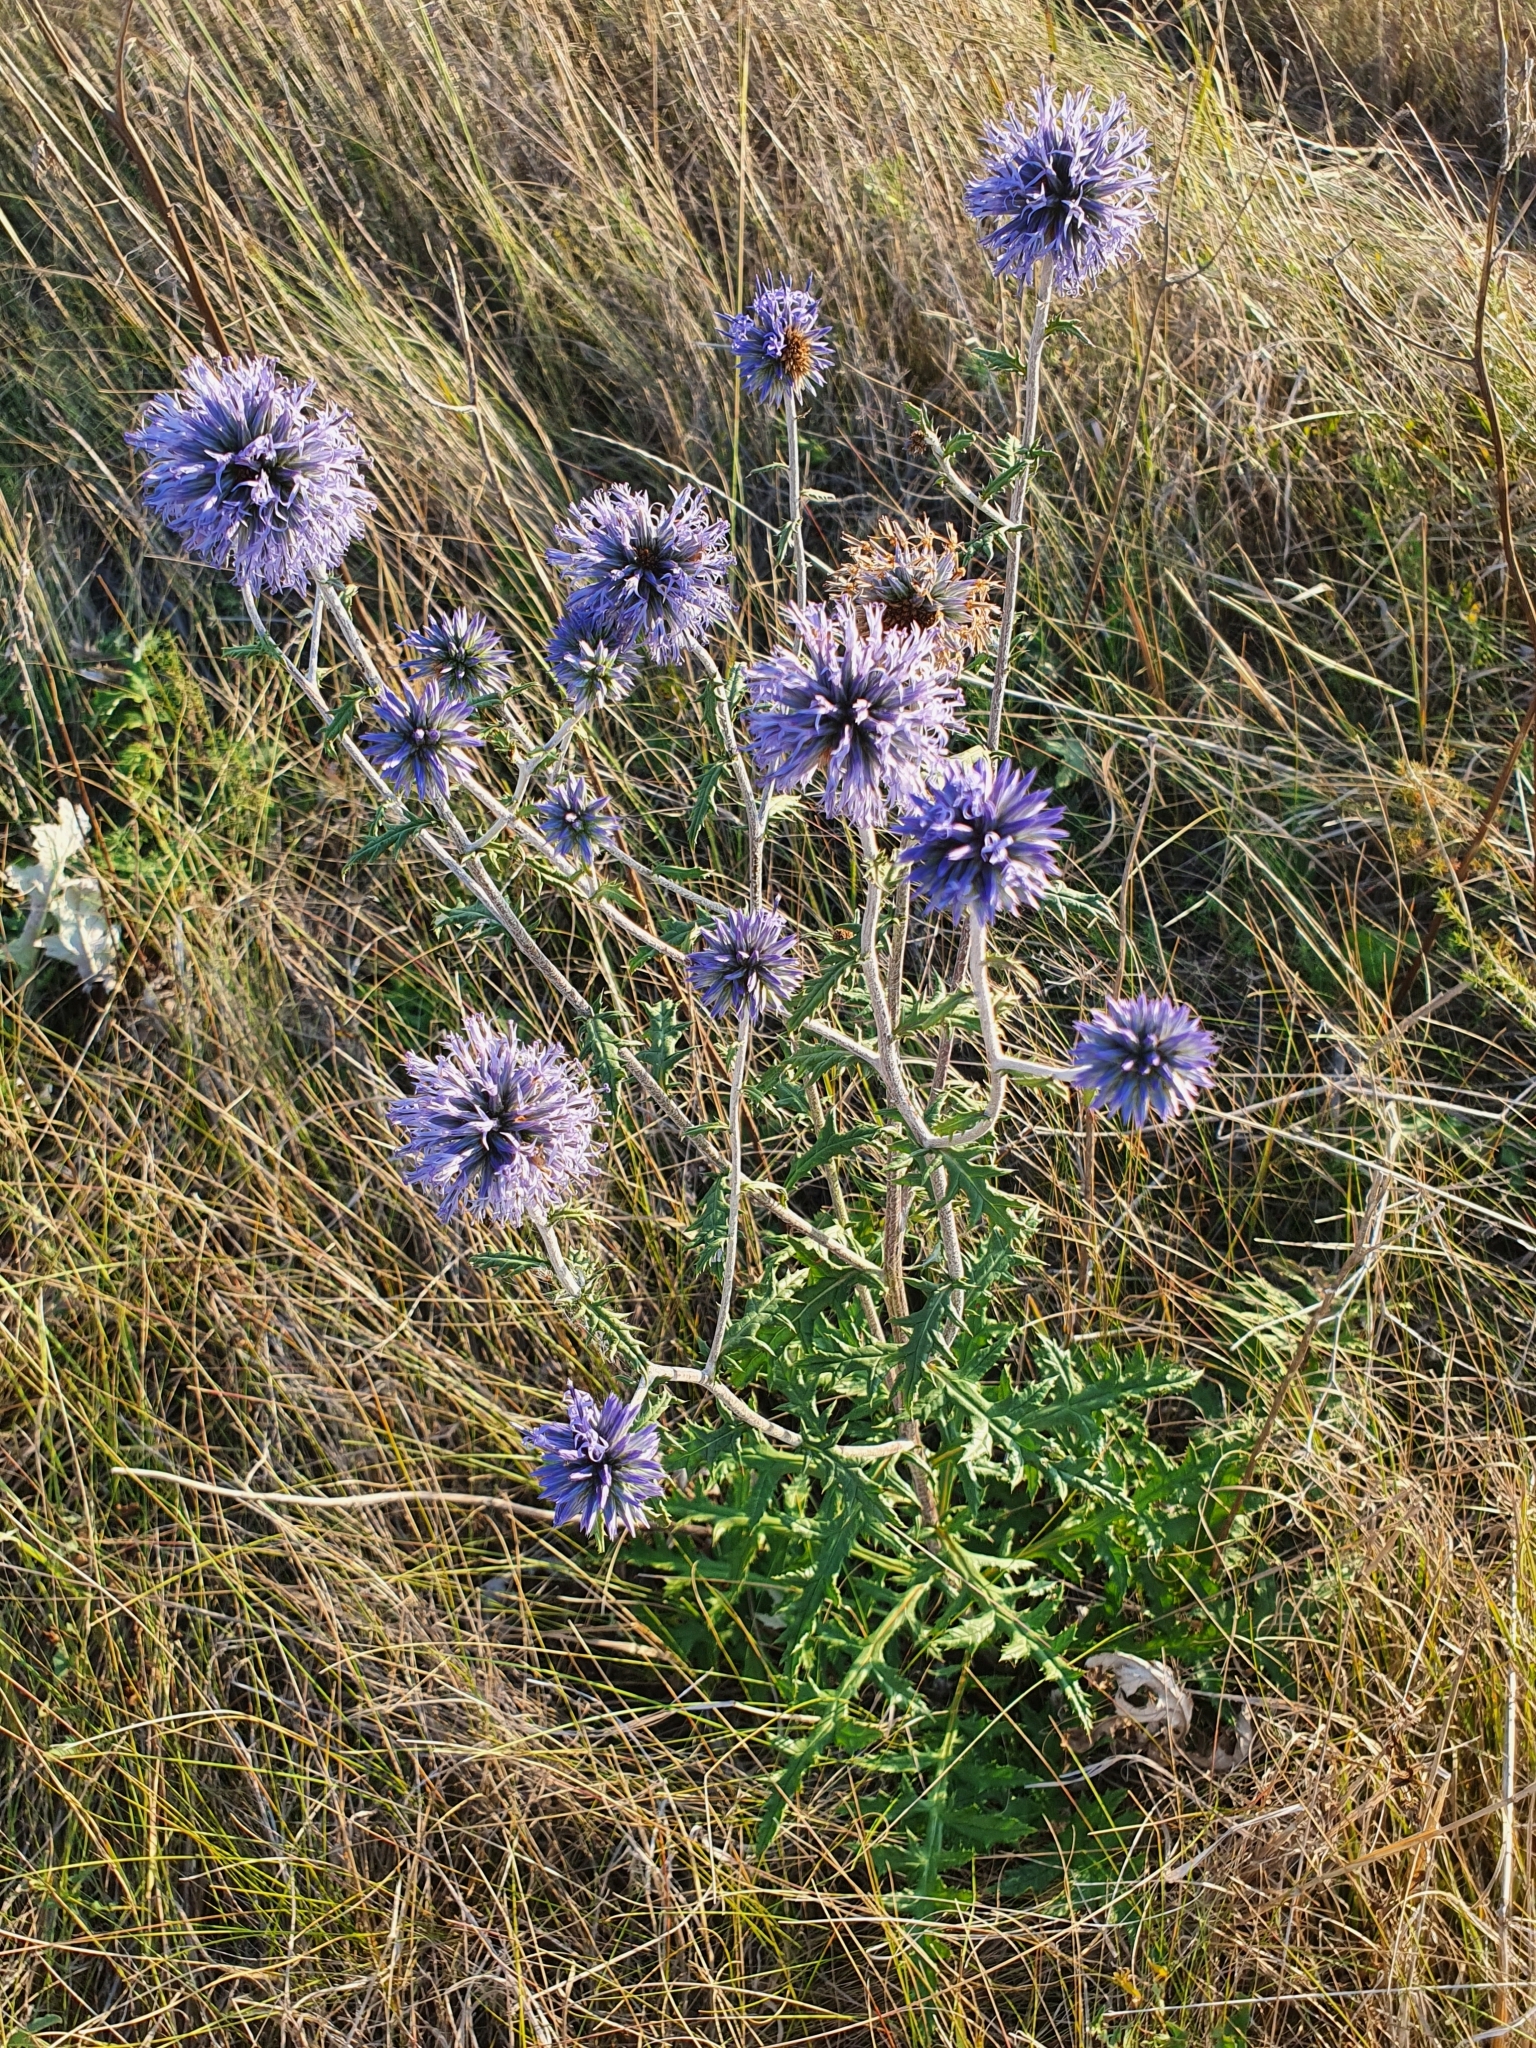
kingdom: Plantae
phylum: Tracheophyta
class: Magnoliopsida
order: Asterales
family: Asteraceae
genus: Echinops
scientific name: Echinops ritro
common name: Globe thistle
